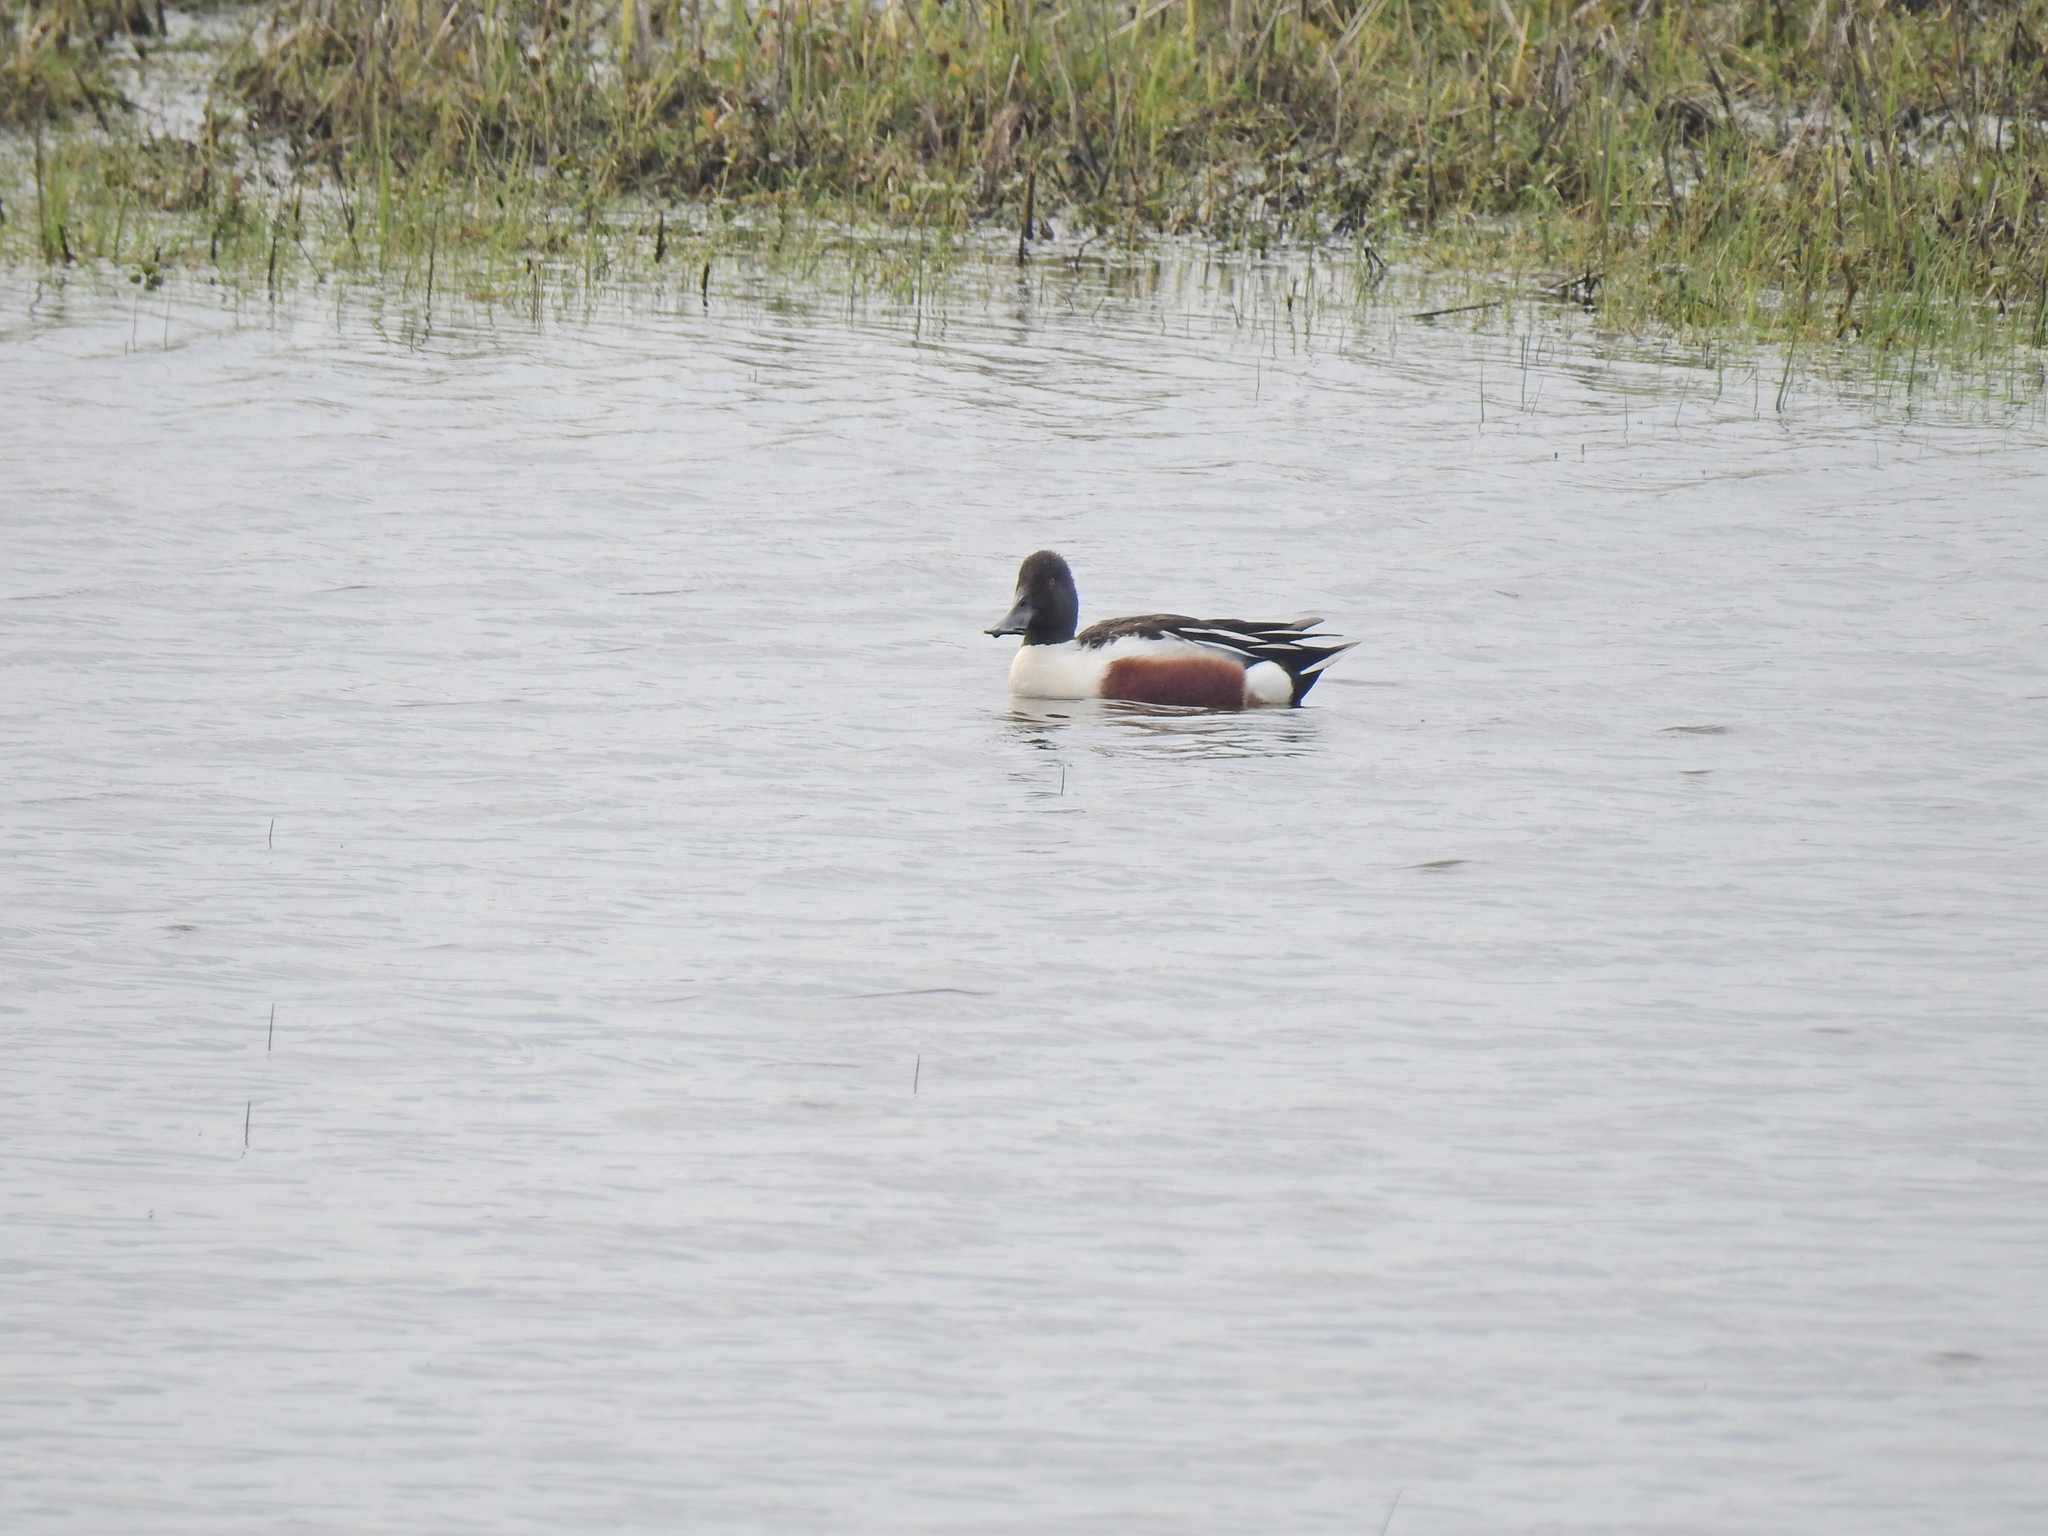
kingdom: Animalia
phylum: Chordata
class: Aves
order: Anseriformes
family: Anatidae
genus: Spatula
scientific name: Spatula clypeata
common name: Northern shoveler
